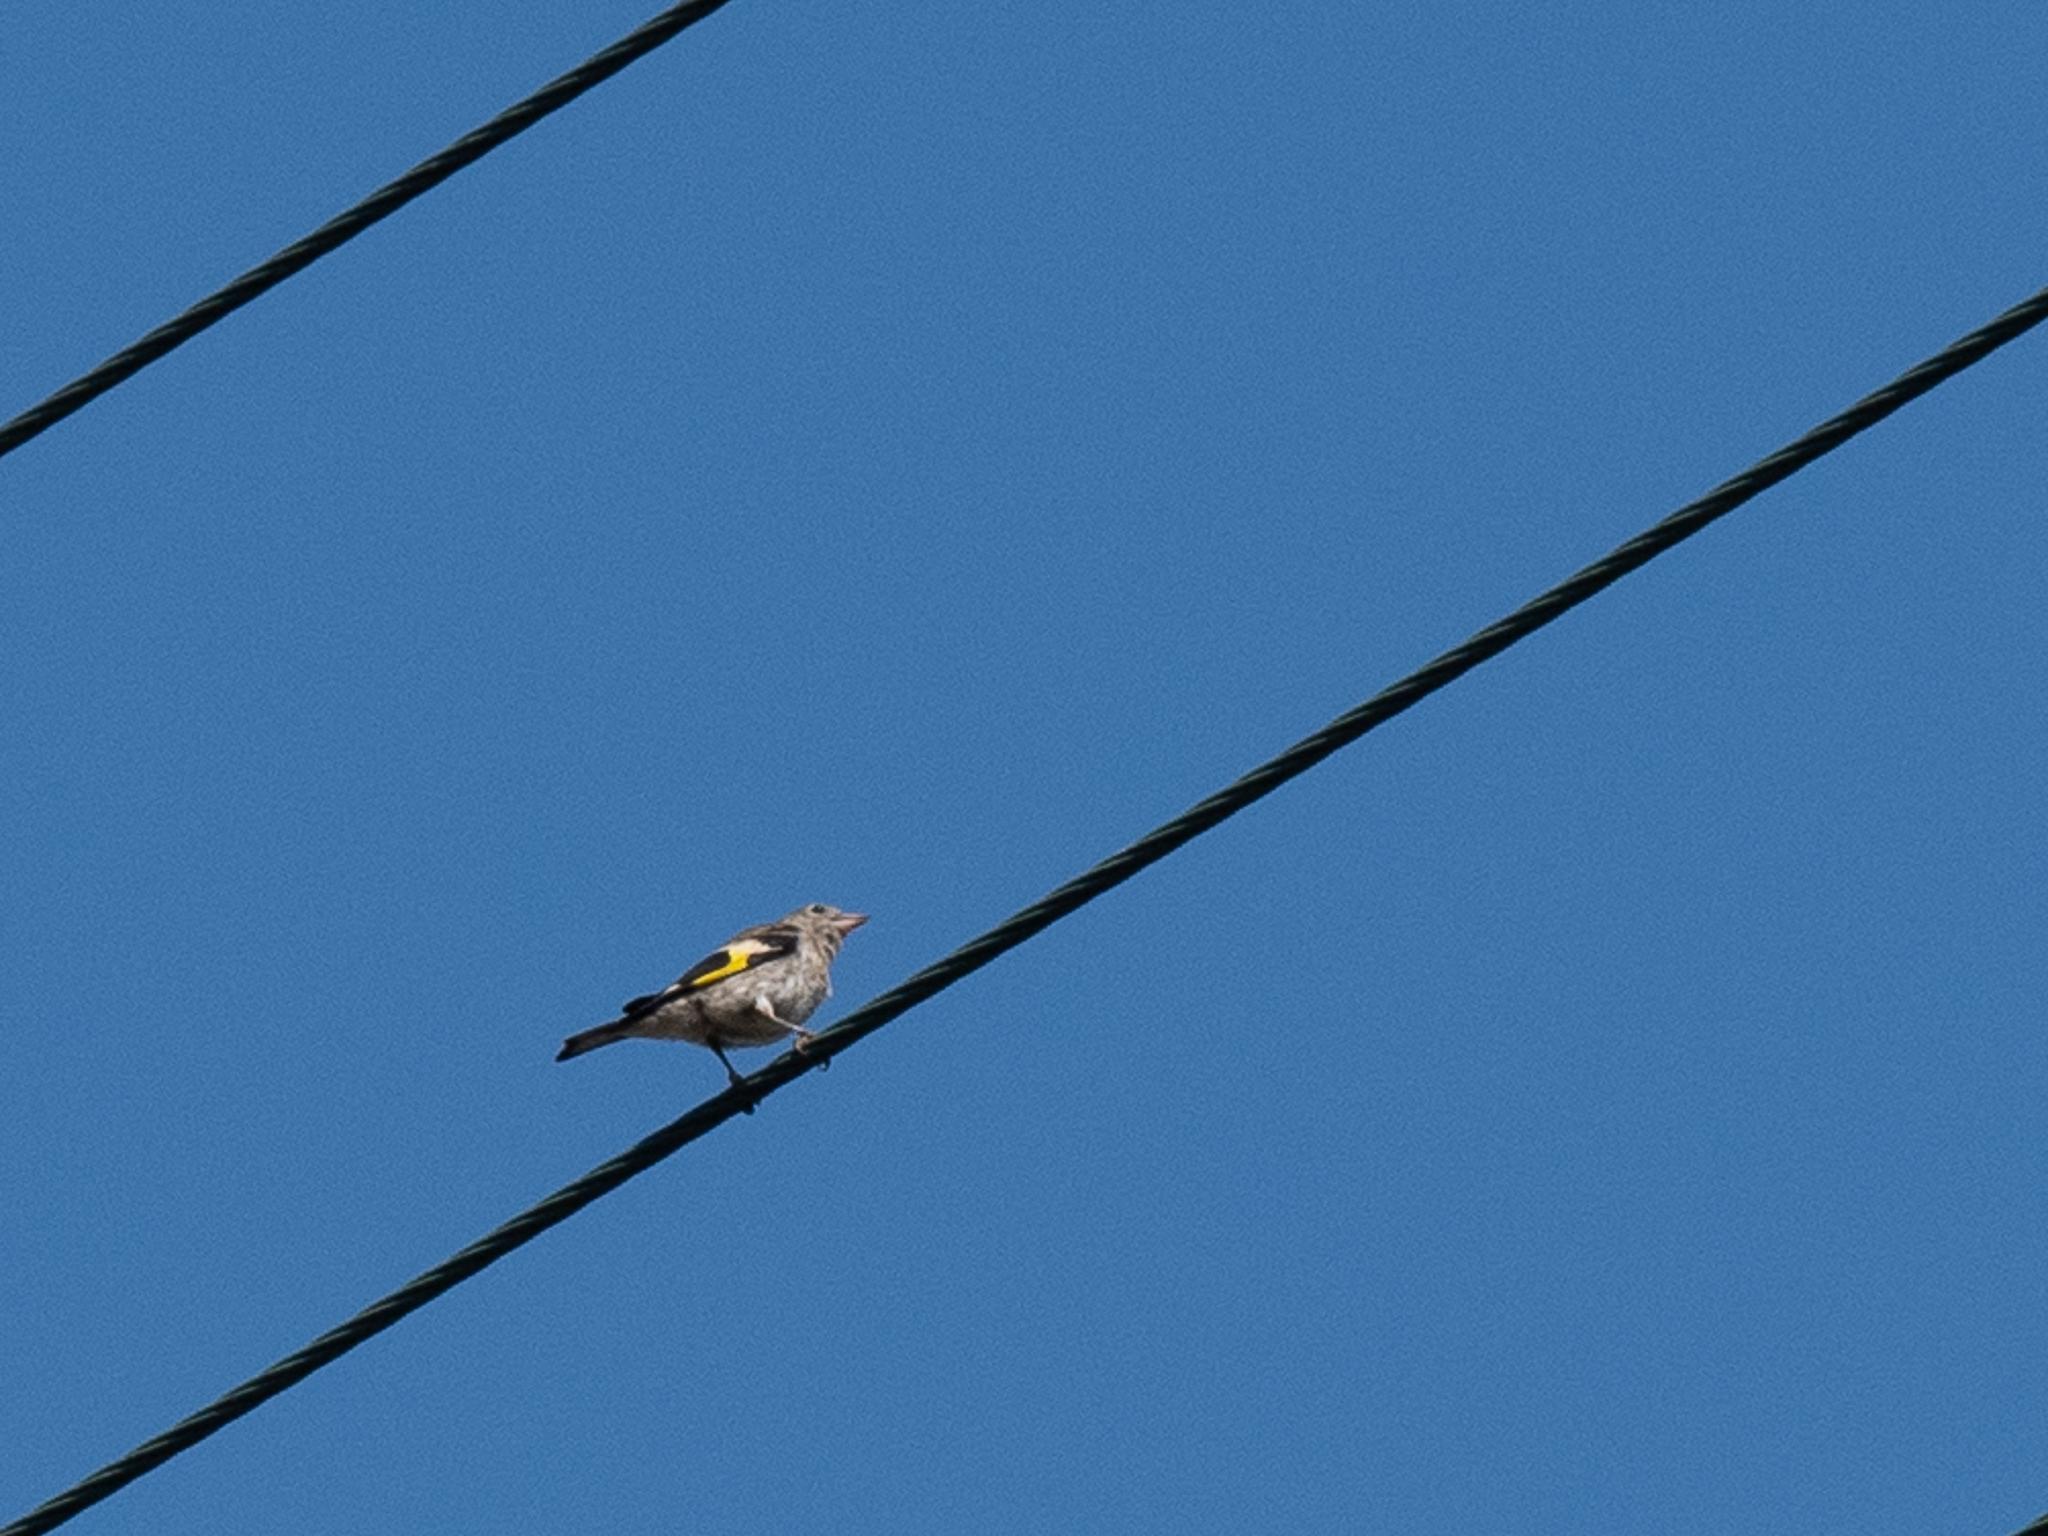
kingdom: Animalia
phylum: Chordata
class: Aves
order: Passeriformes
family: Fringillidae
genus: Carduelis
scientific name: Carduelis carduelis
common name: European goldfinch
